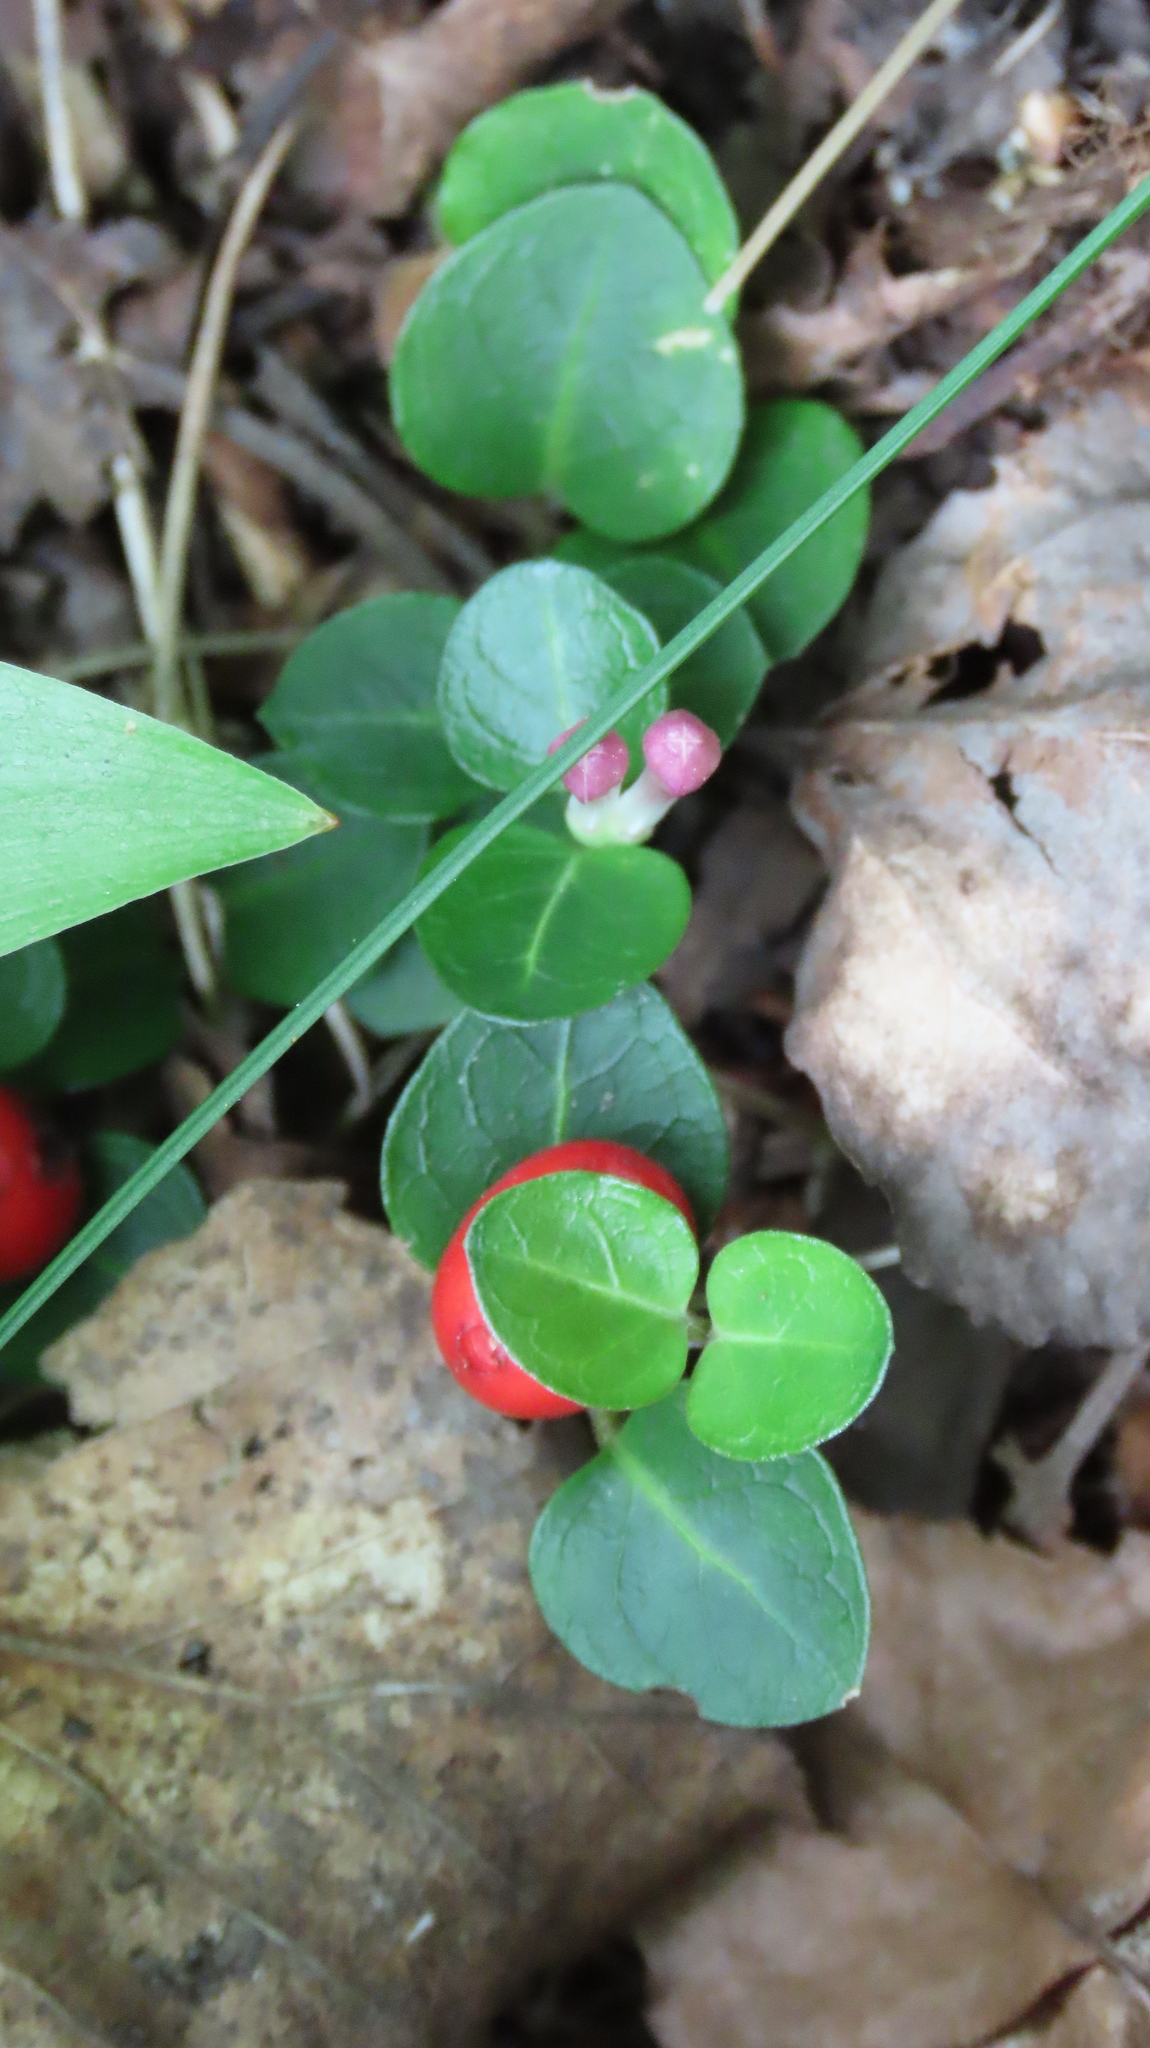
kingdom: Plantae
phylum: Tracheophyta
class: Magnoliopsida
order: Gentianales
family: Rubiaceae
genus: Mitchella
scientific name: Mitchella repens
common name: Partridge-berry
